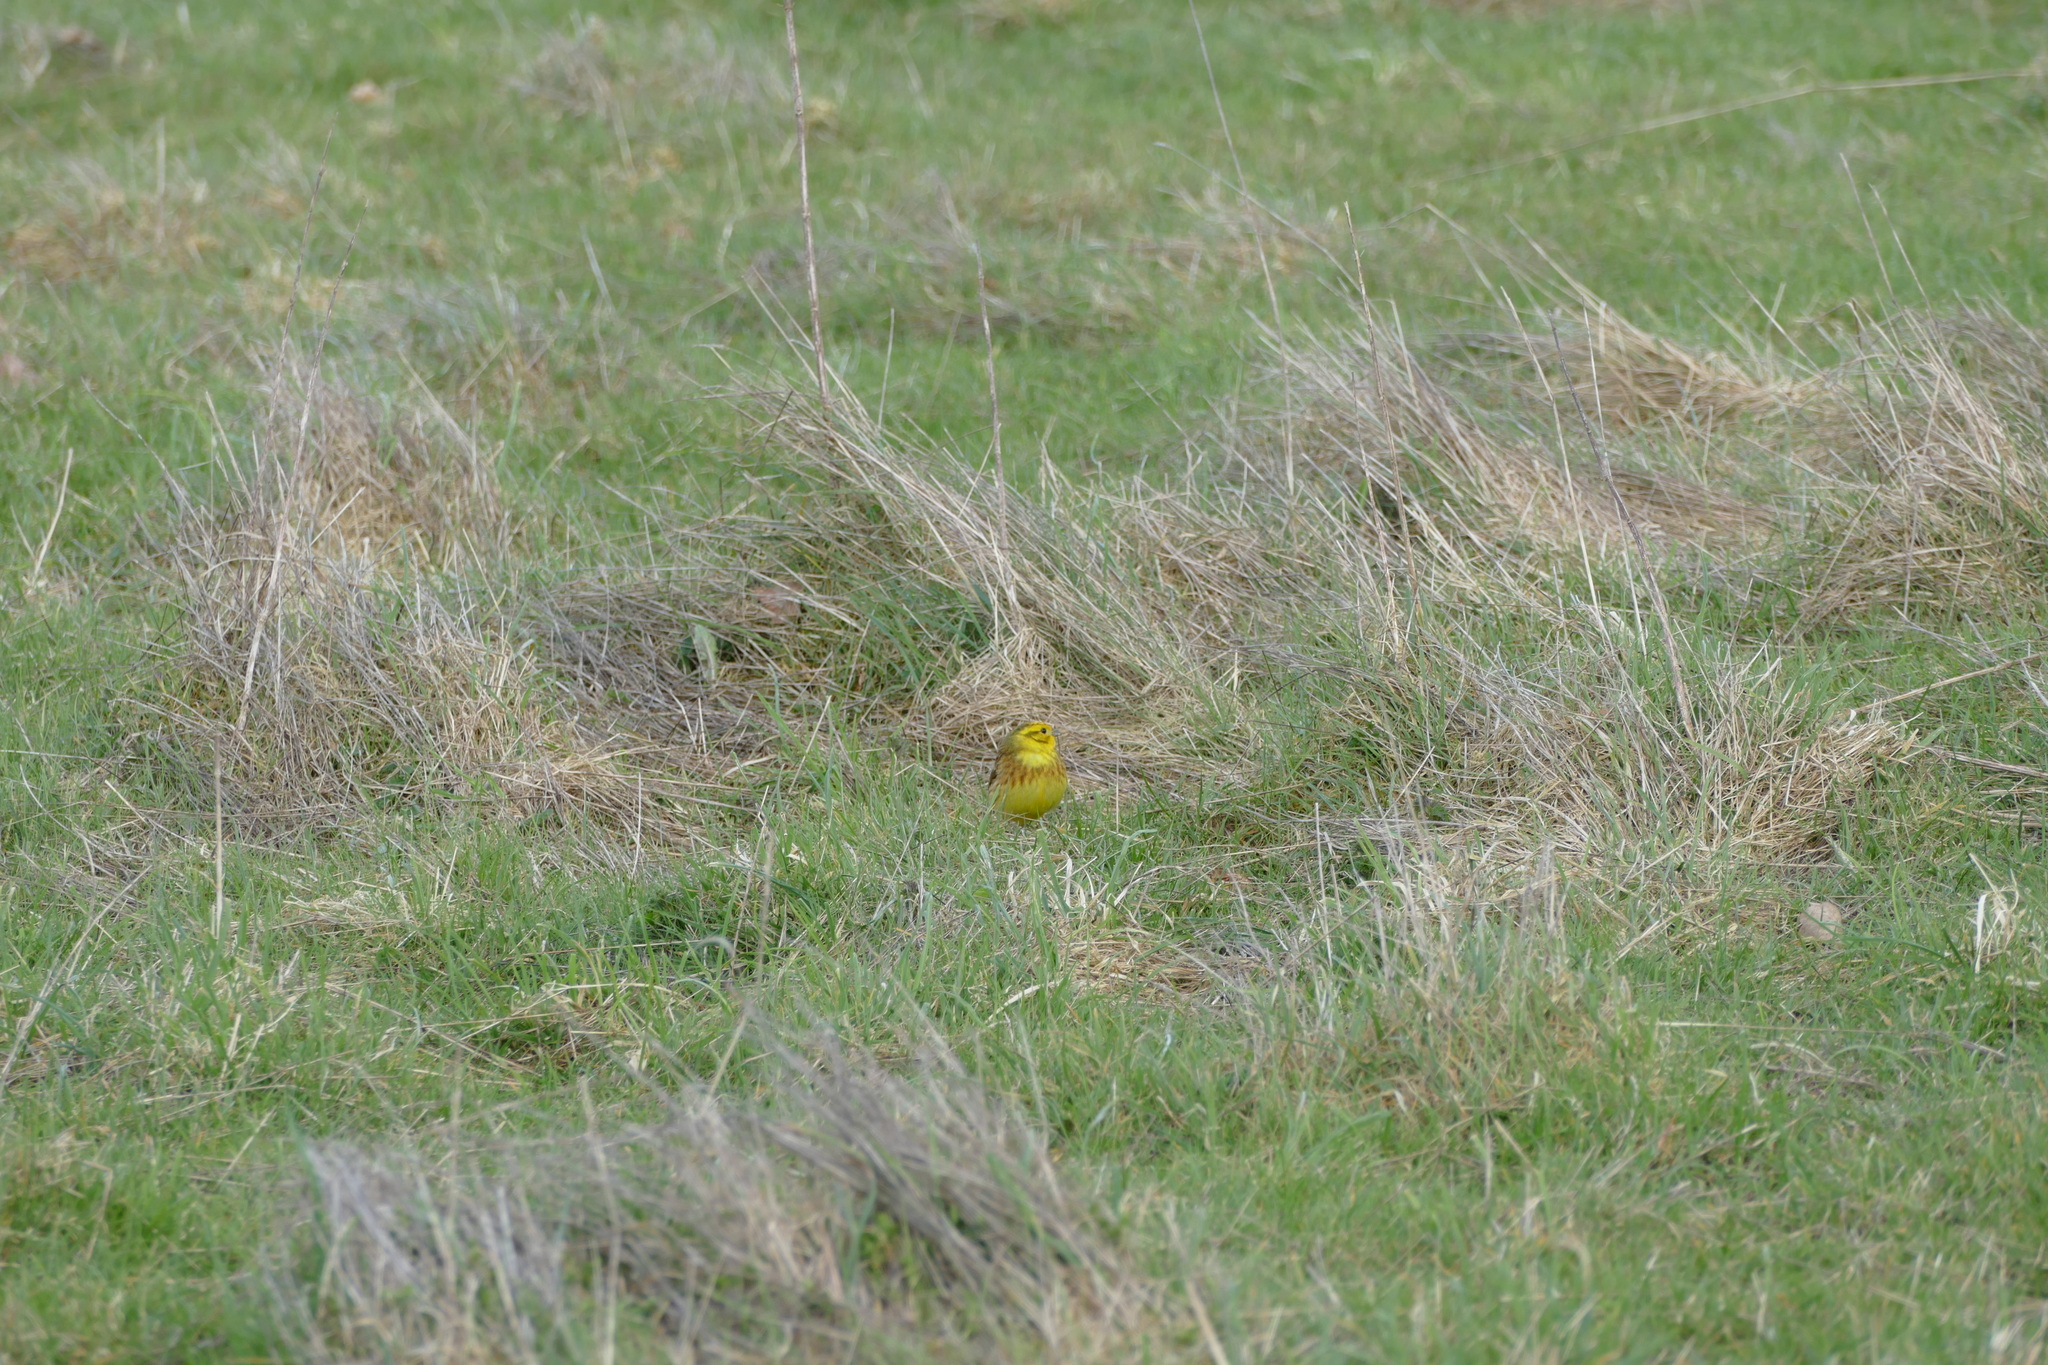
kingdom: Animalia
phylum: Chordata
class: Aves
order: Passeriformes
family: Emberizidae
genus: Emberiza
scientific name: Emberiza citrinella
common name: Yellowhammer
